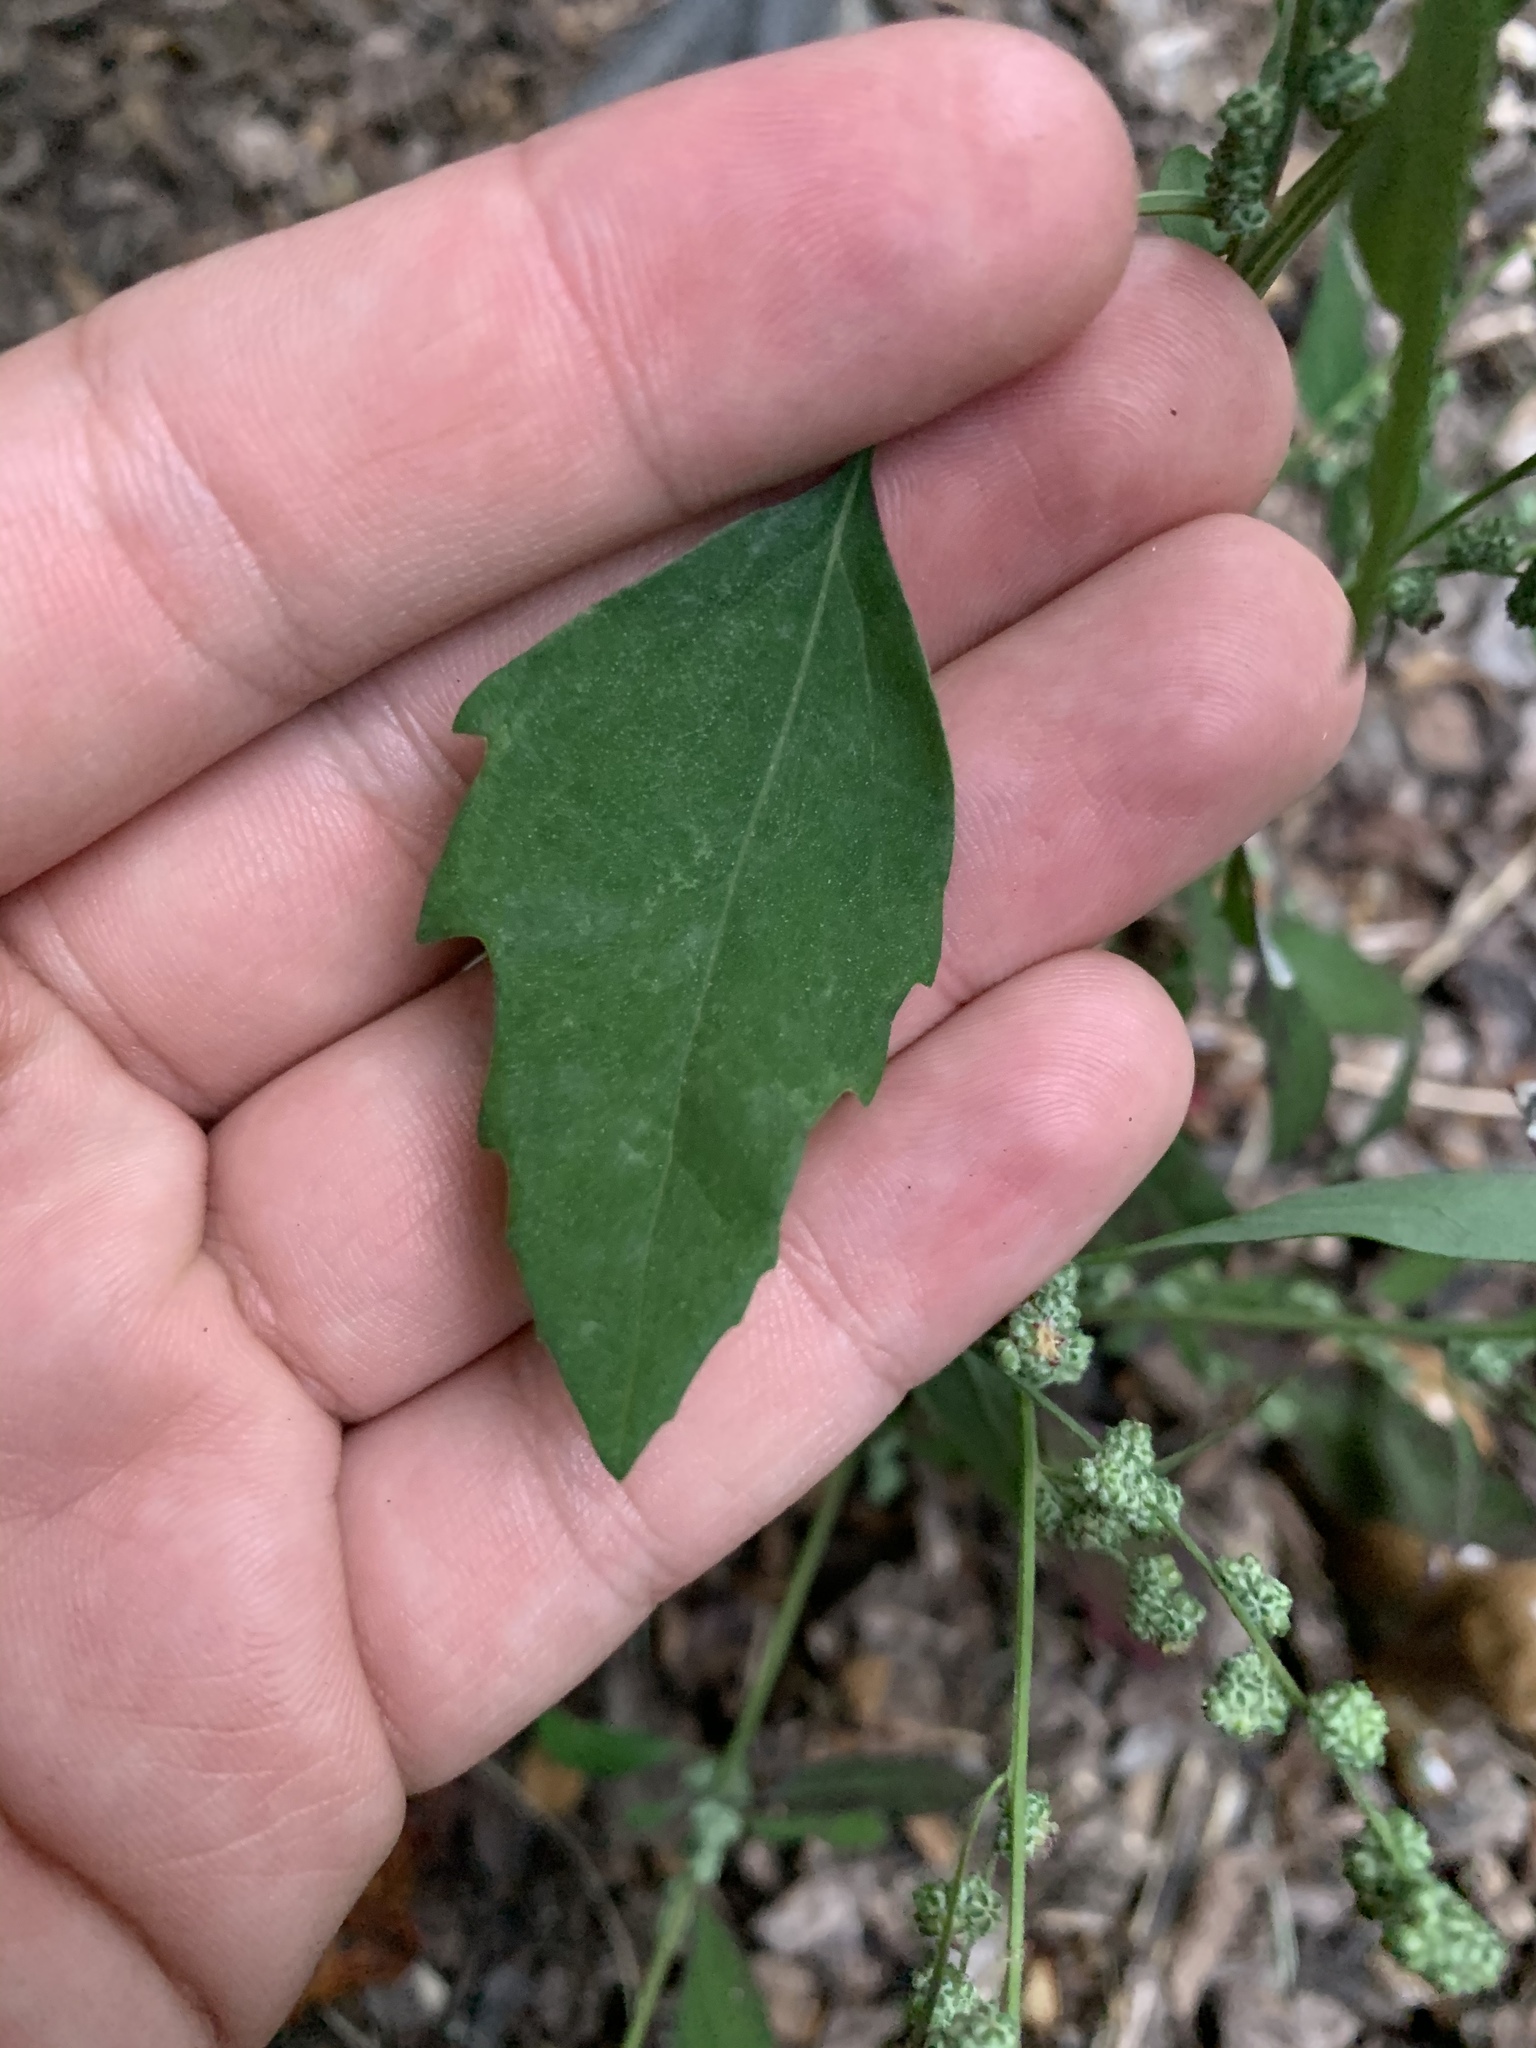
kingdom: Plantae
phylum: Tracheophyta
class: Magnoliopsida
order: Caryophyllales
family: Amaranthaceae
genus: Chenopodium
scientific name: Chenopodium album
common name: Fat-hen
